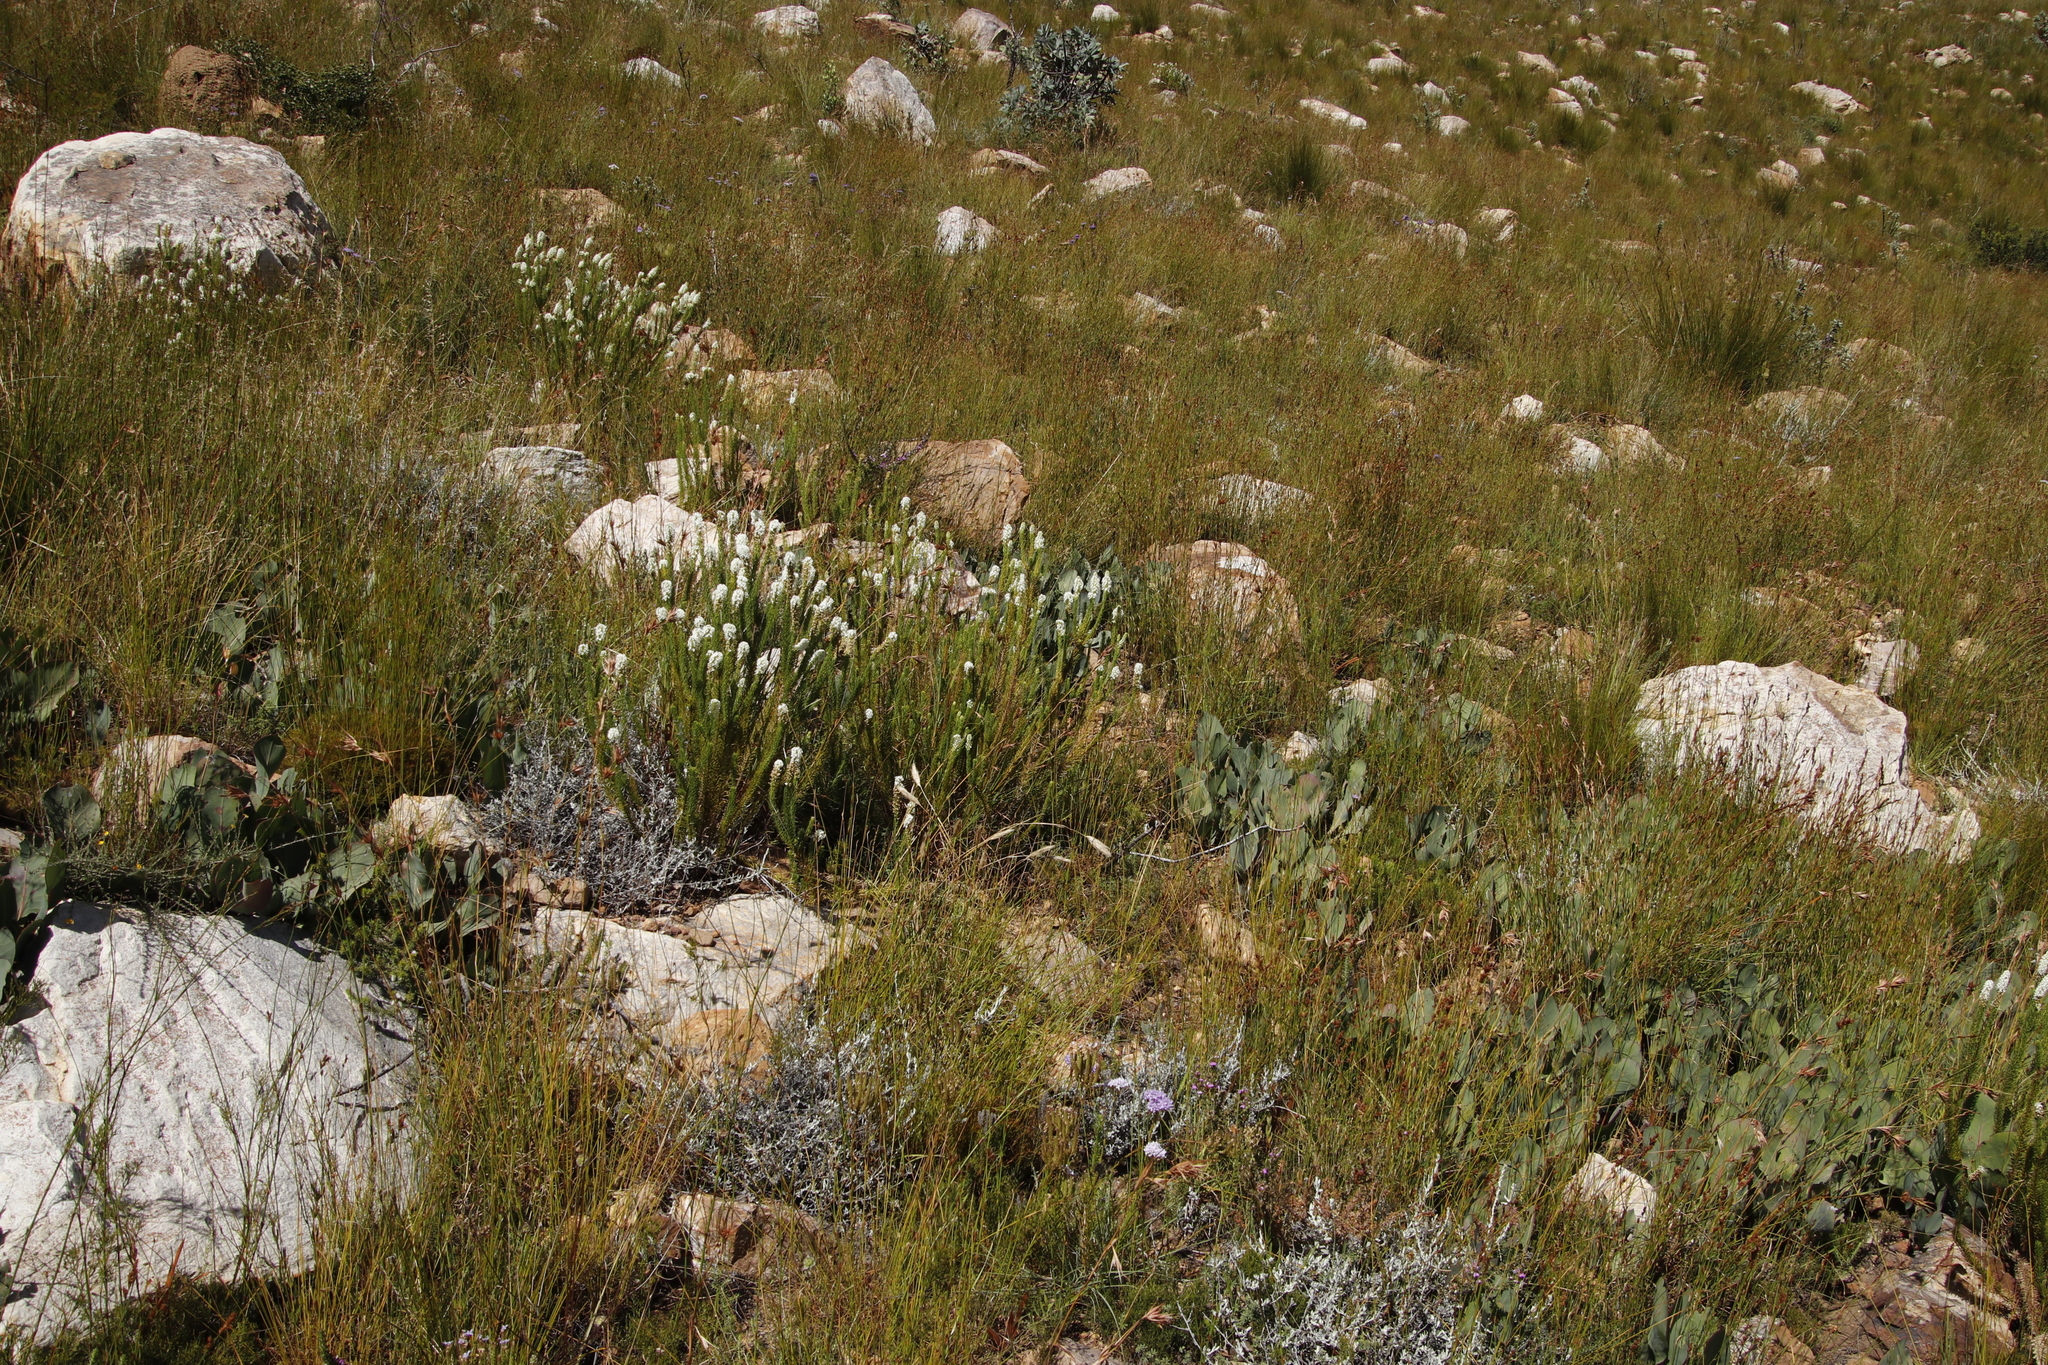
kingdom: Plantae
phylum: Tracheophyta
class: Magnoliopsida
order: Proteales
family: Proteaceae
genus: Protea
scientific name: Protea acaulos
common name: Common ground sugarbush
